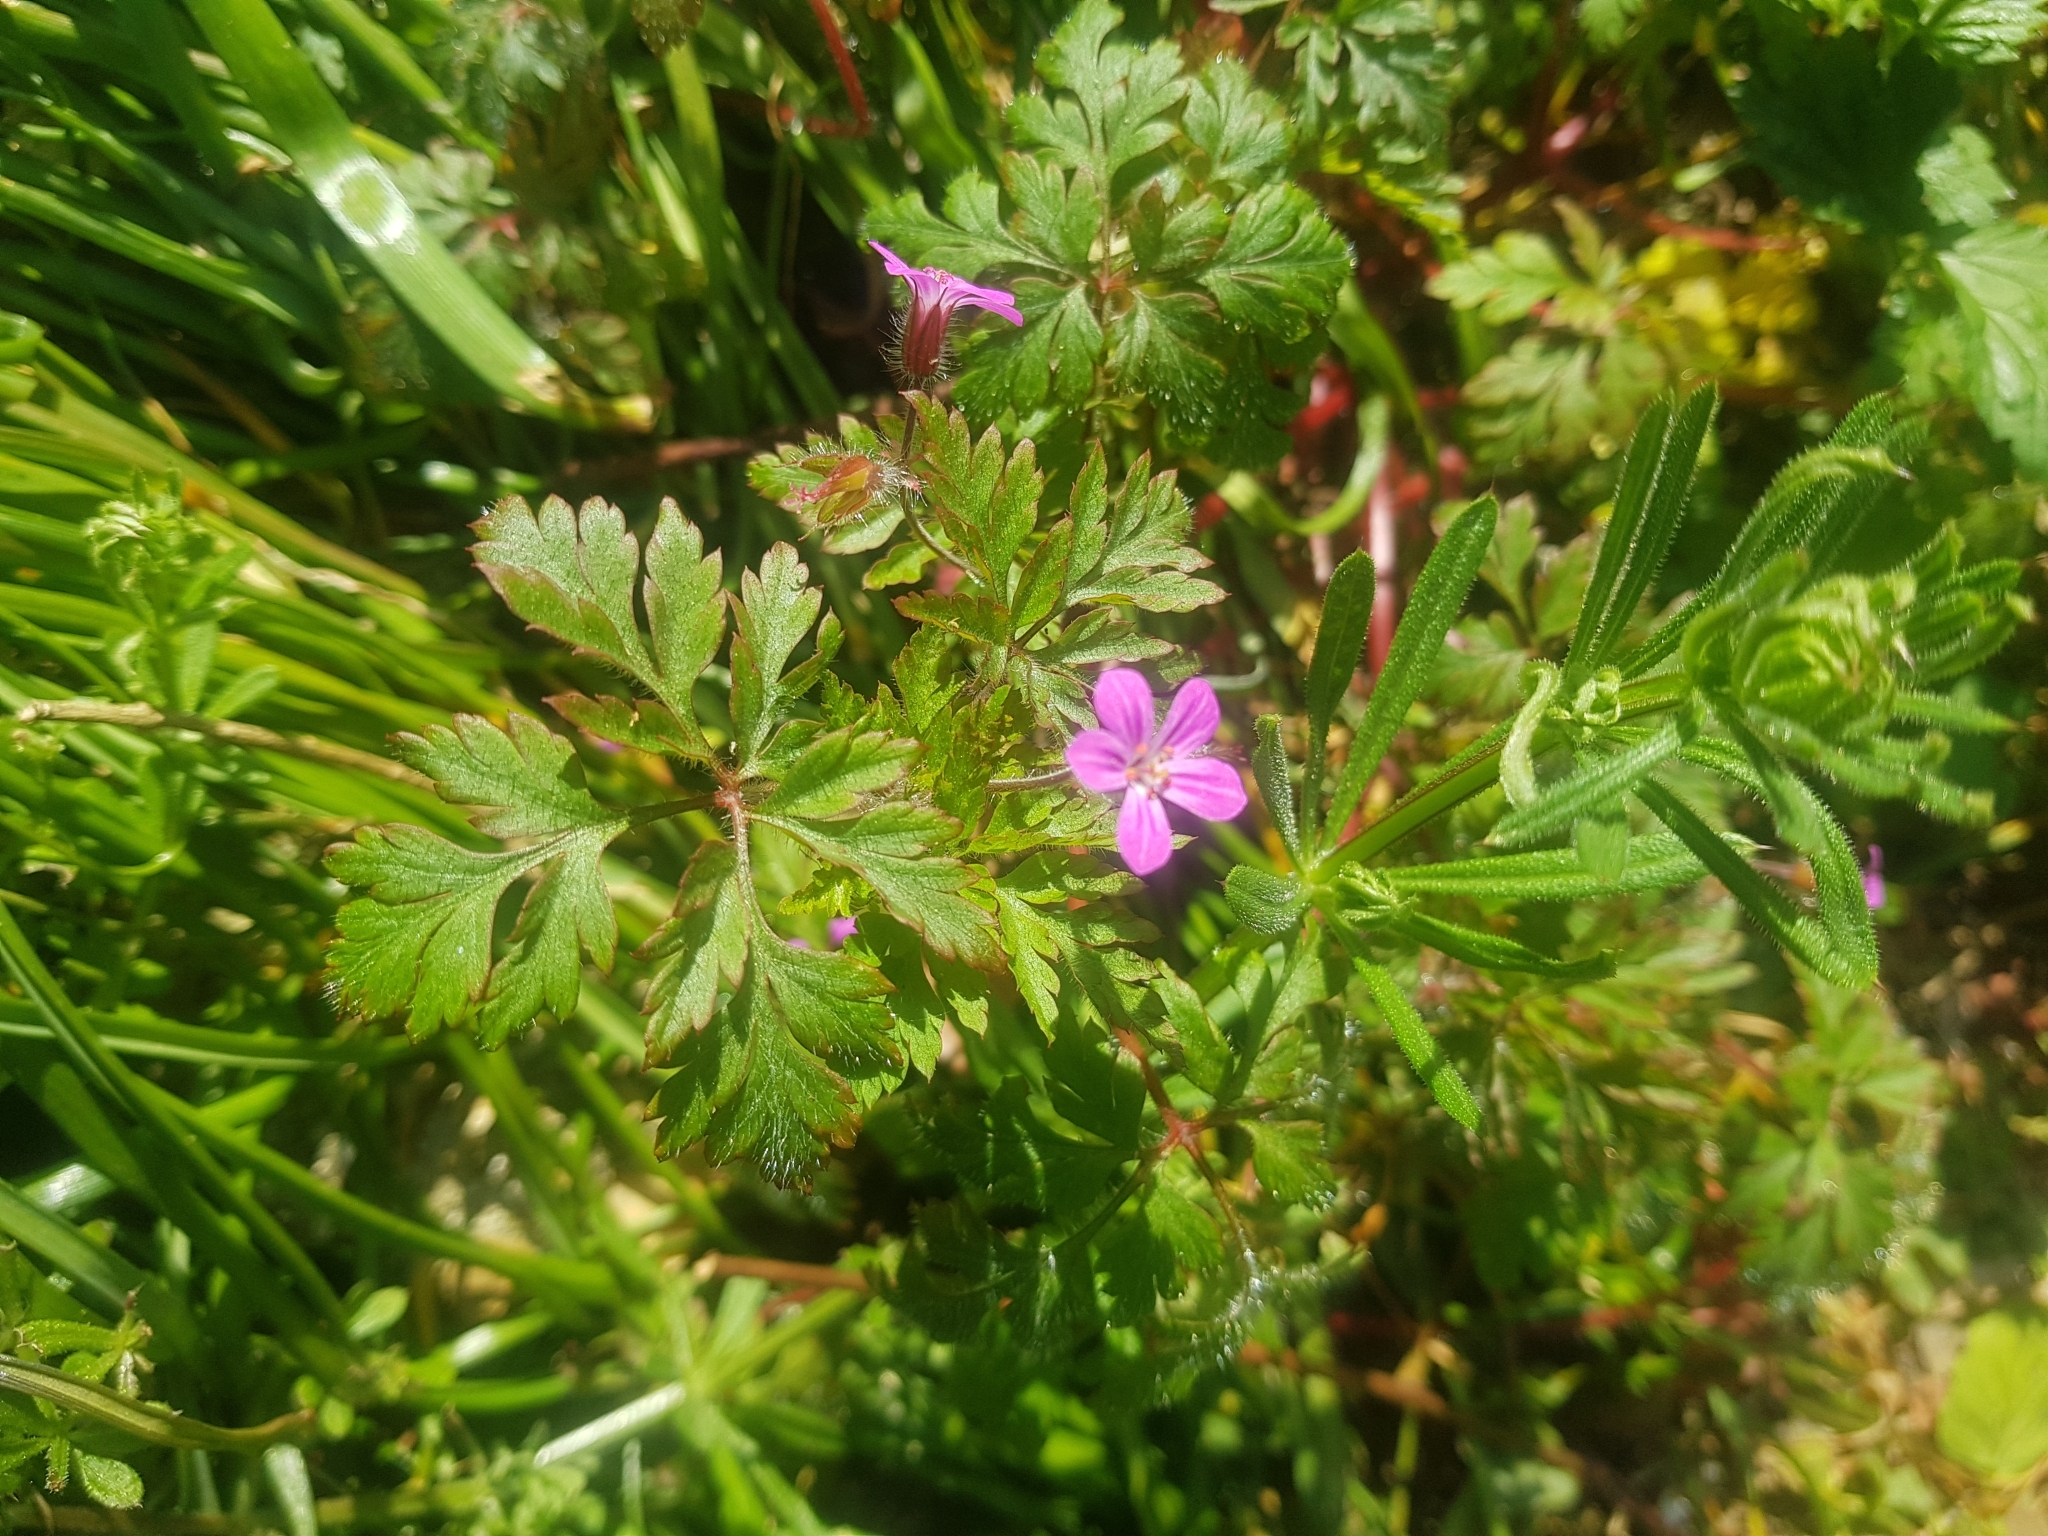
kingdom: Plantae
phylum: Tracheophyta
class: Magnoliopsida
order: Geraniales
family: Geraniaceae
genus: Geranium
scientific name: Geranium robertianum
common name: Herb-robert
